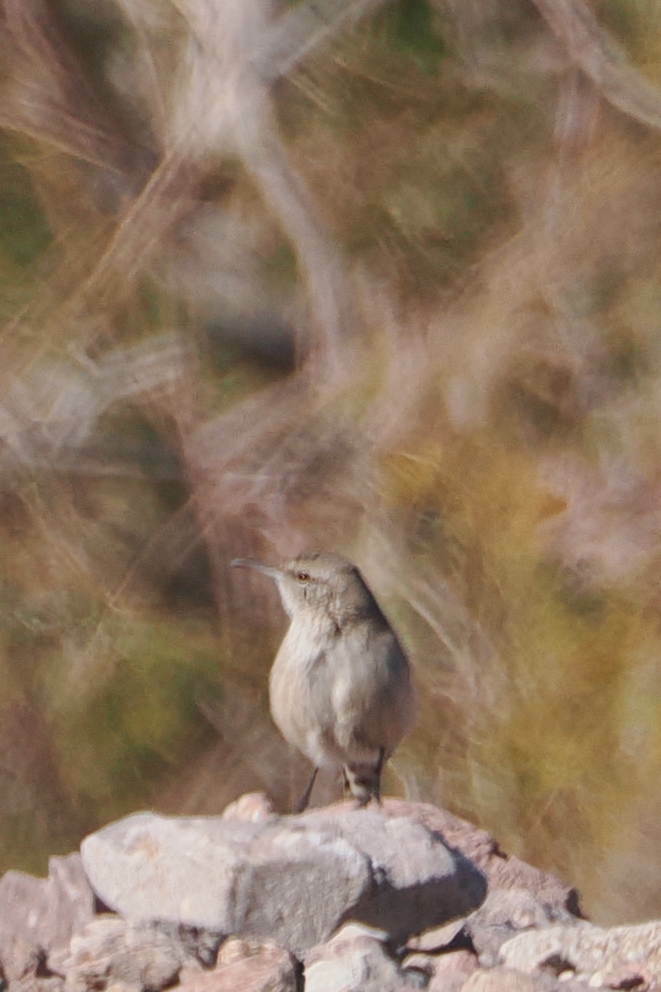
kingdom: Animalia
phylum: Chordata
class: Aves
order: Passeriformes
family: Troglodytidae
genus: Salpinctes
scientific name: Salpinctes obsoletus
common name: Rock wren
